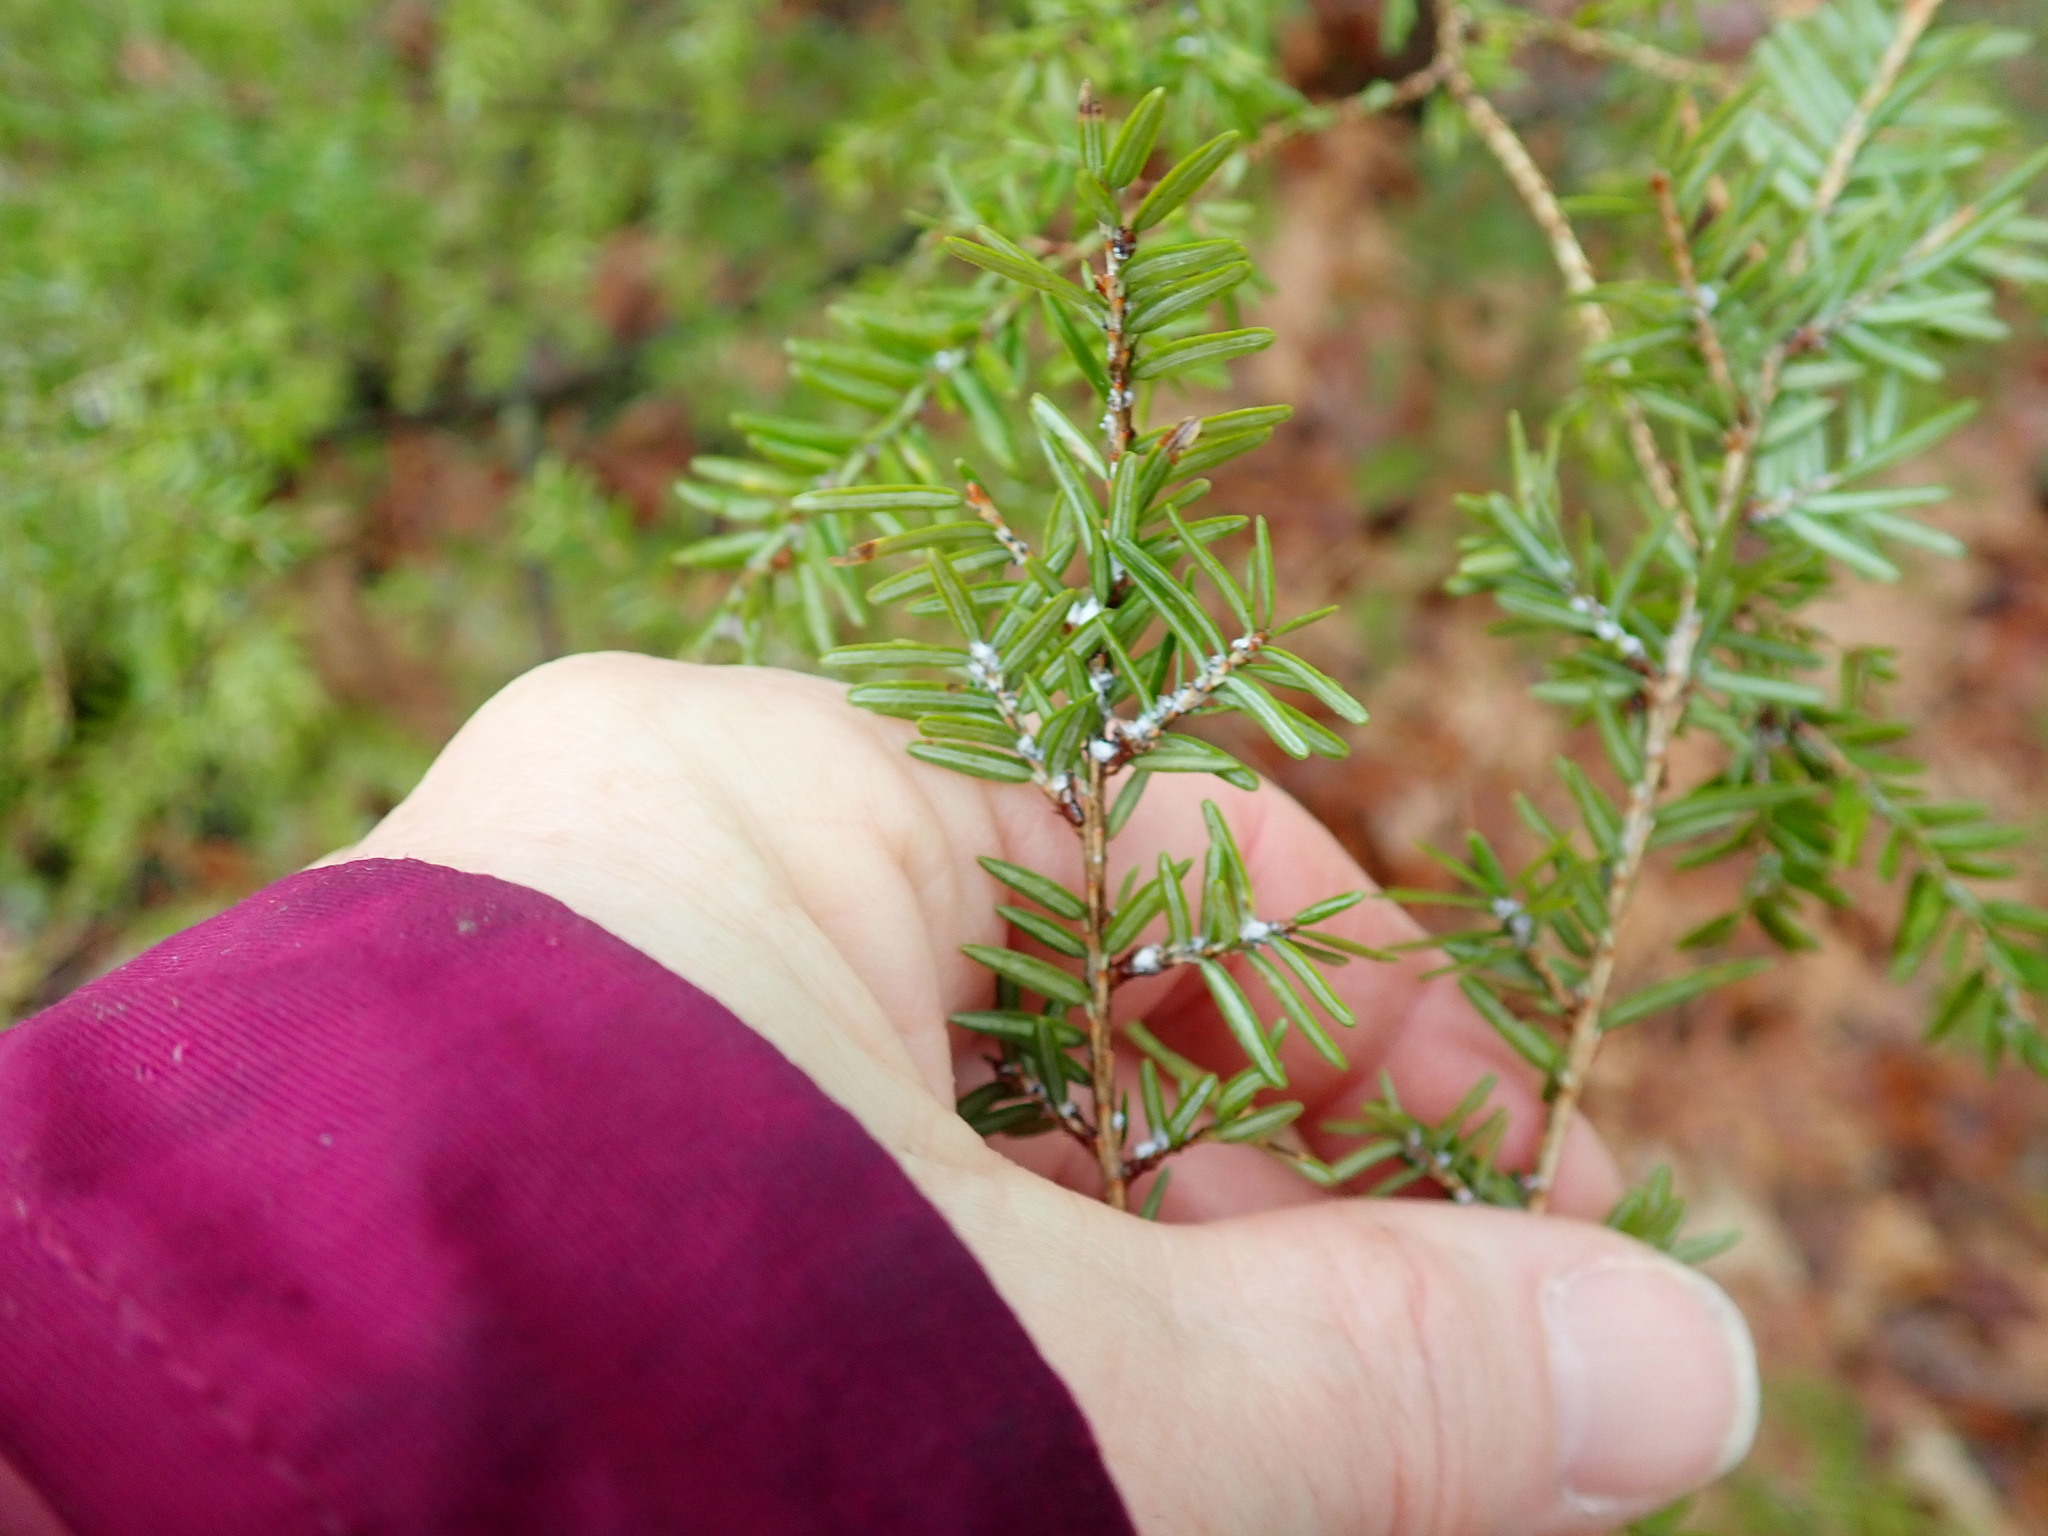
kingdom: Animalia
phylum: Arthropoda
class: Insecta
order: Hemiptera
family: Adelgidae
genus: Adelges
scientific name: Adelges tsugae
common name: Hemlock woolly adelgid
